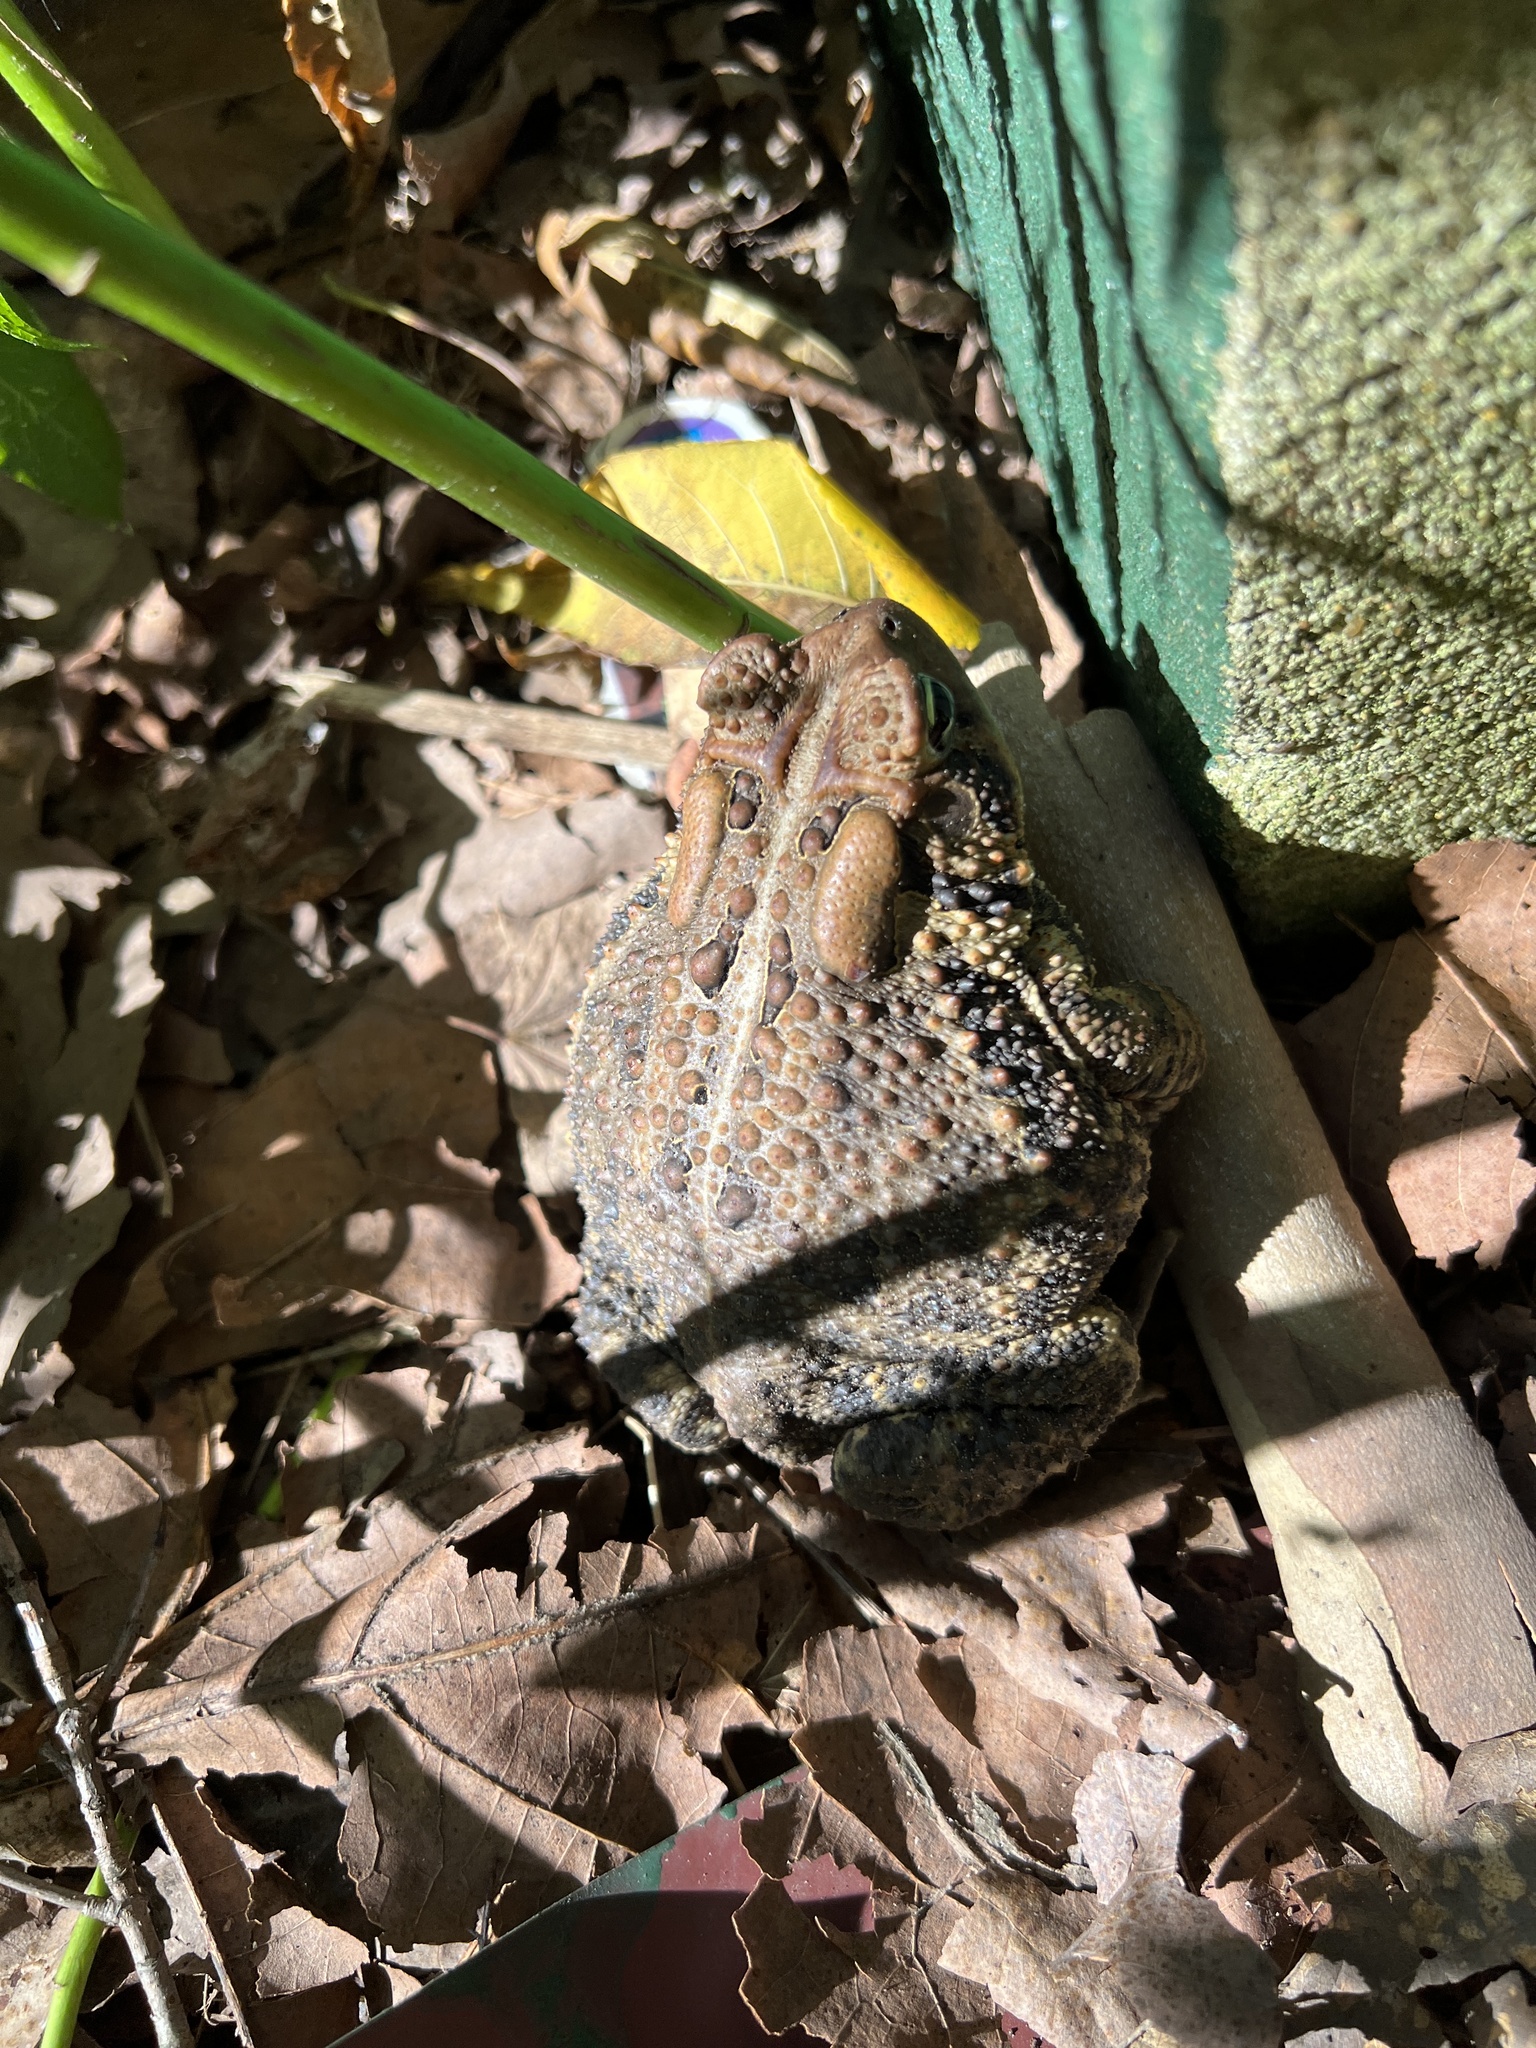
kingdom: Animalia
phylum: Chordata
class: Amphibia
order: Anura
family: Bufonidae
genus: Anaxyrus
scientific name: Anaxyrus americanus
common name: American toad
